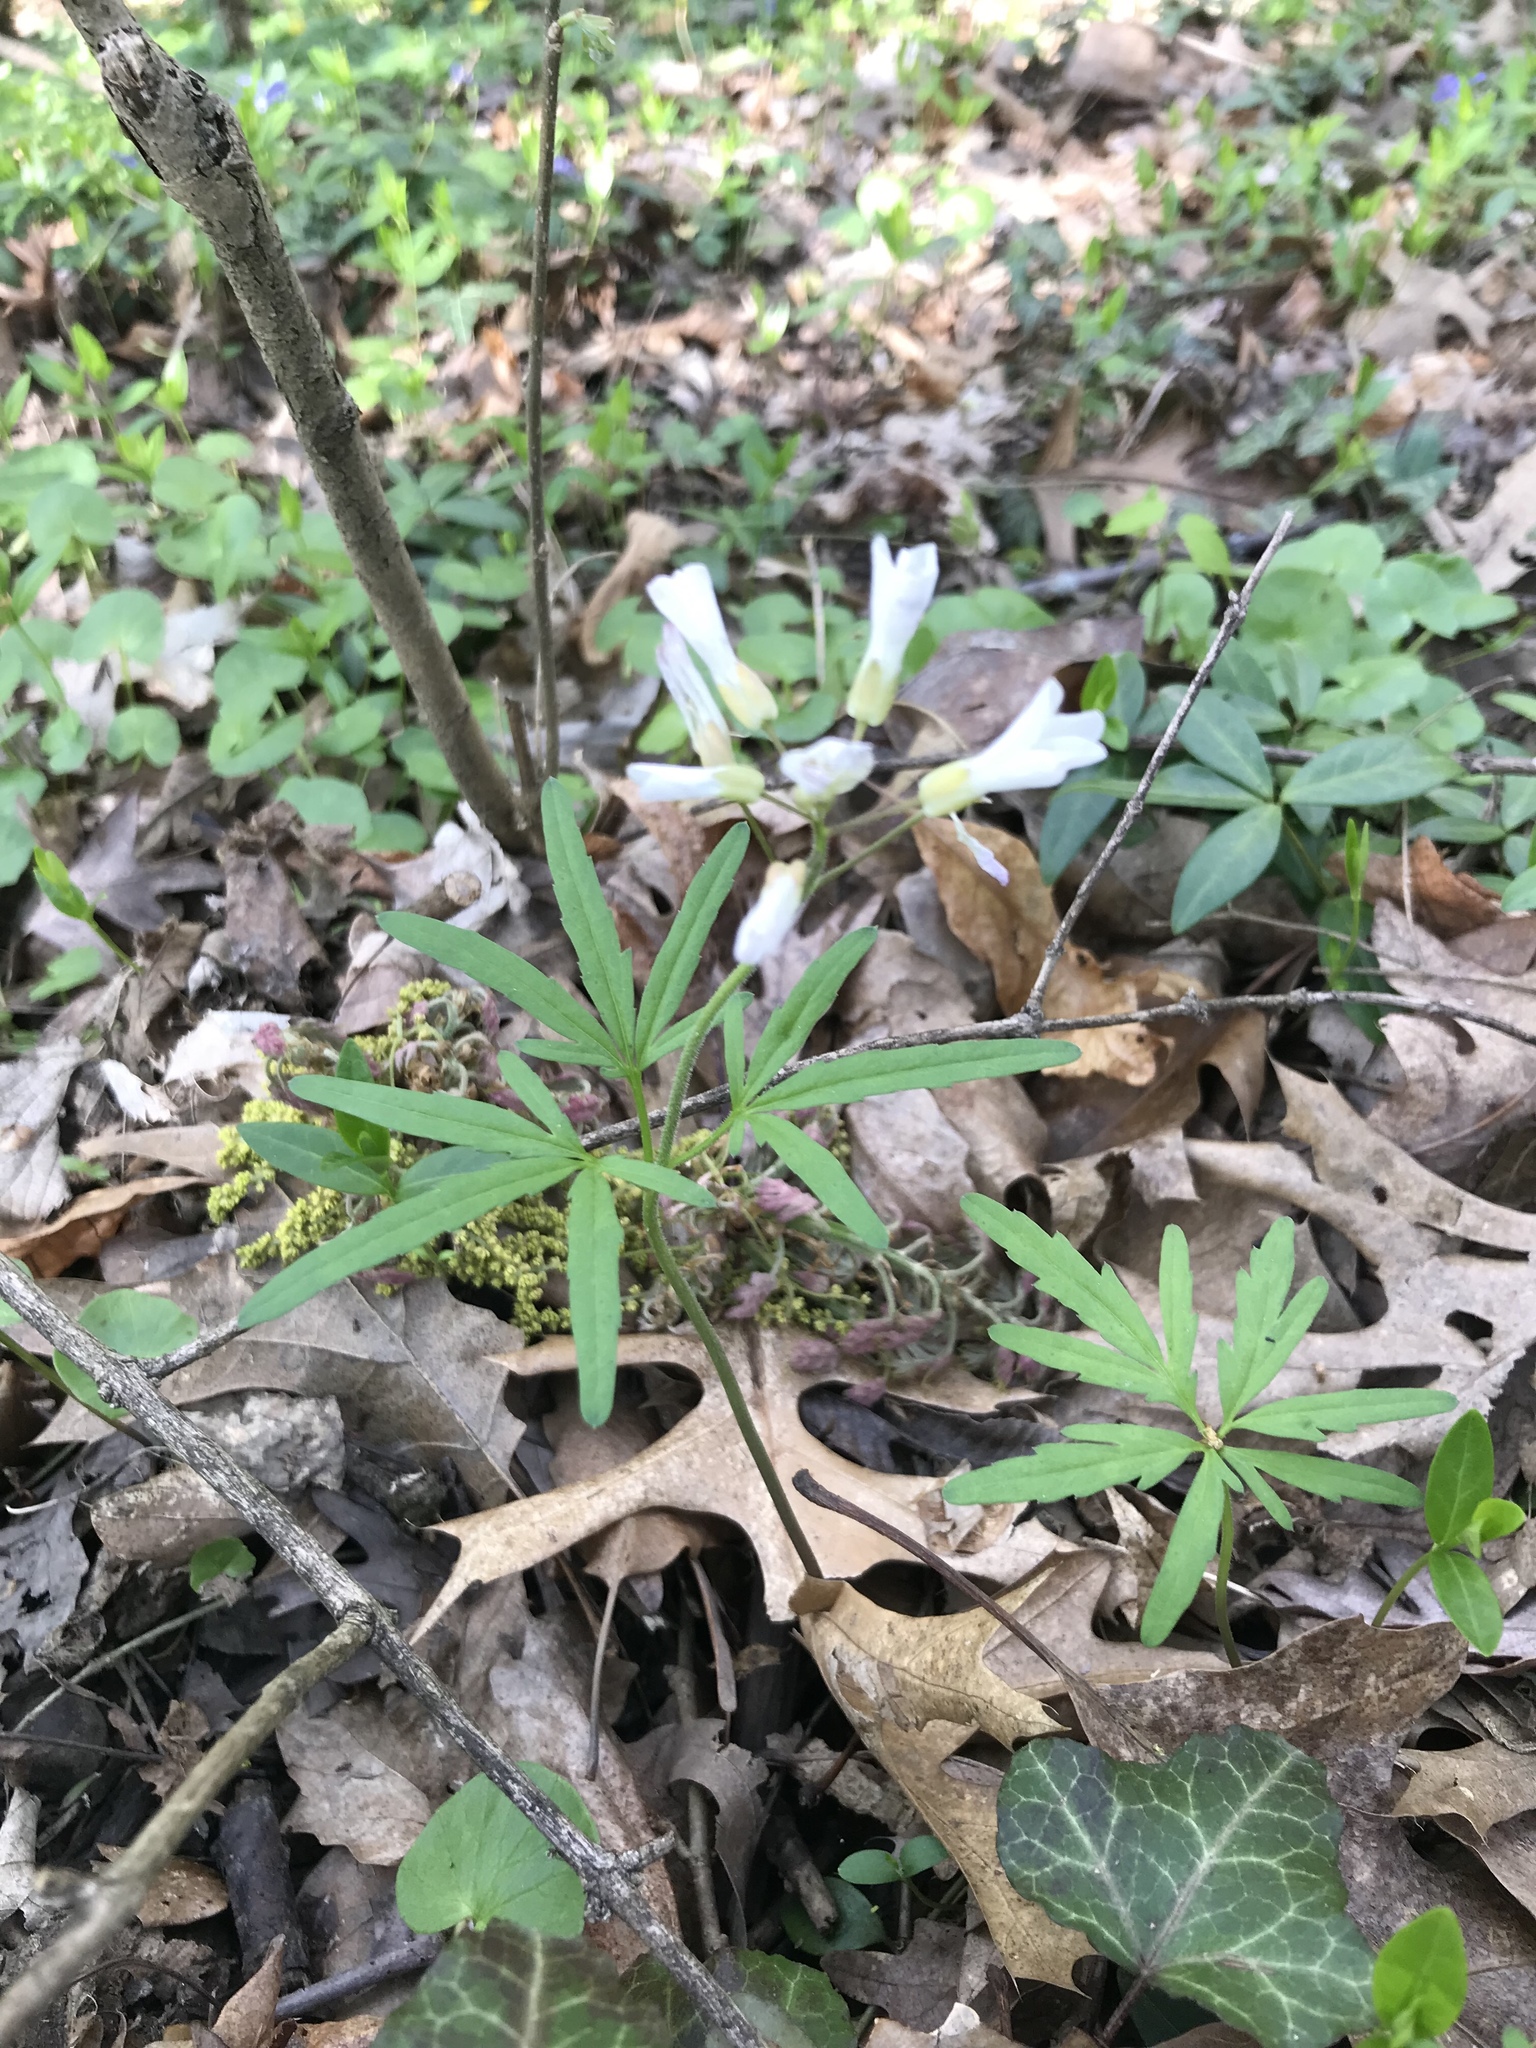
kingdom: Plantae
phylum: Tracheophyta
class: Magnoliopsida
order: Brassicales
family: Brassicaceae
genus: Cardamine
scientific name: Cardamine concatenata
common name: Cut-leaf toothcup
